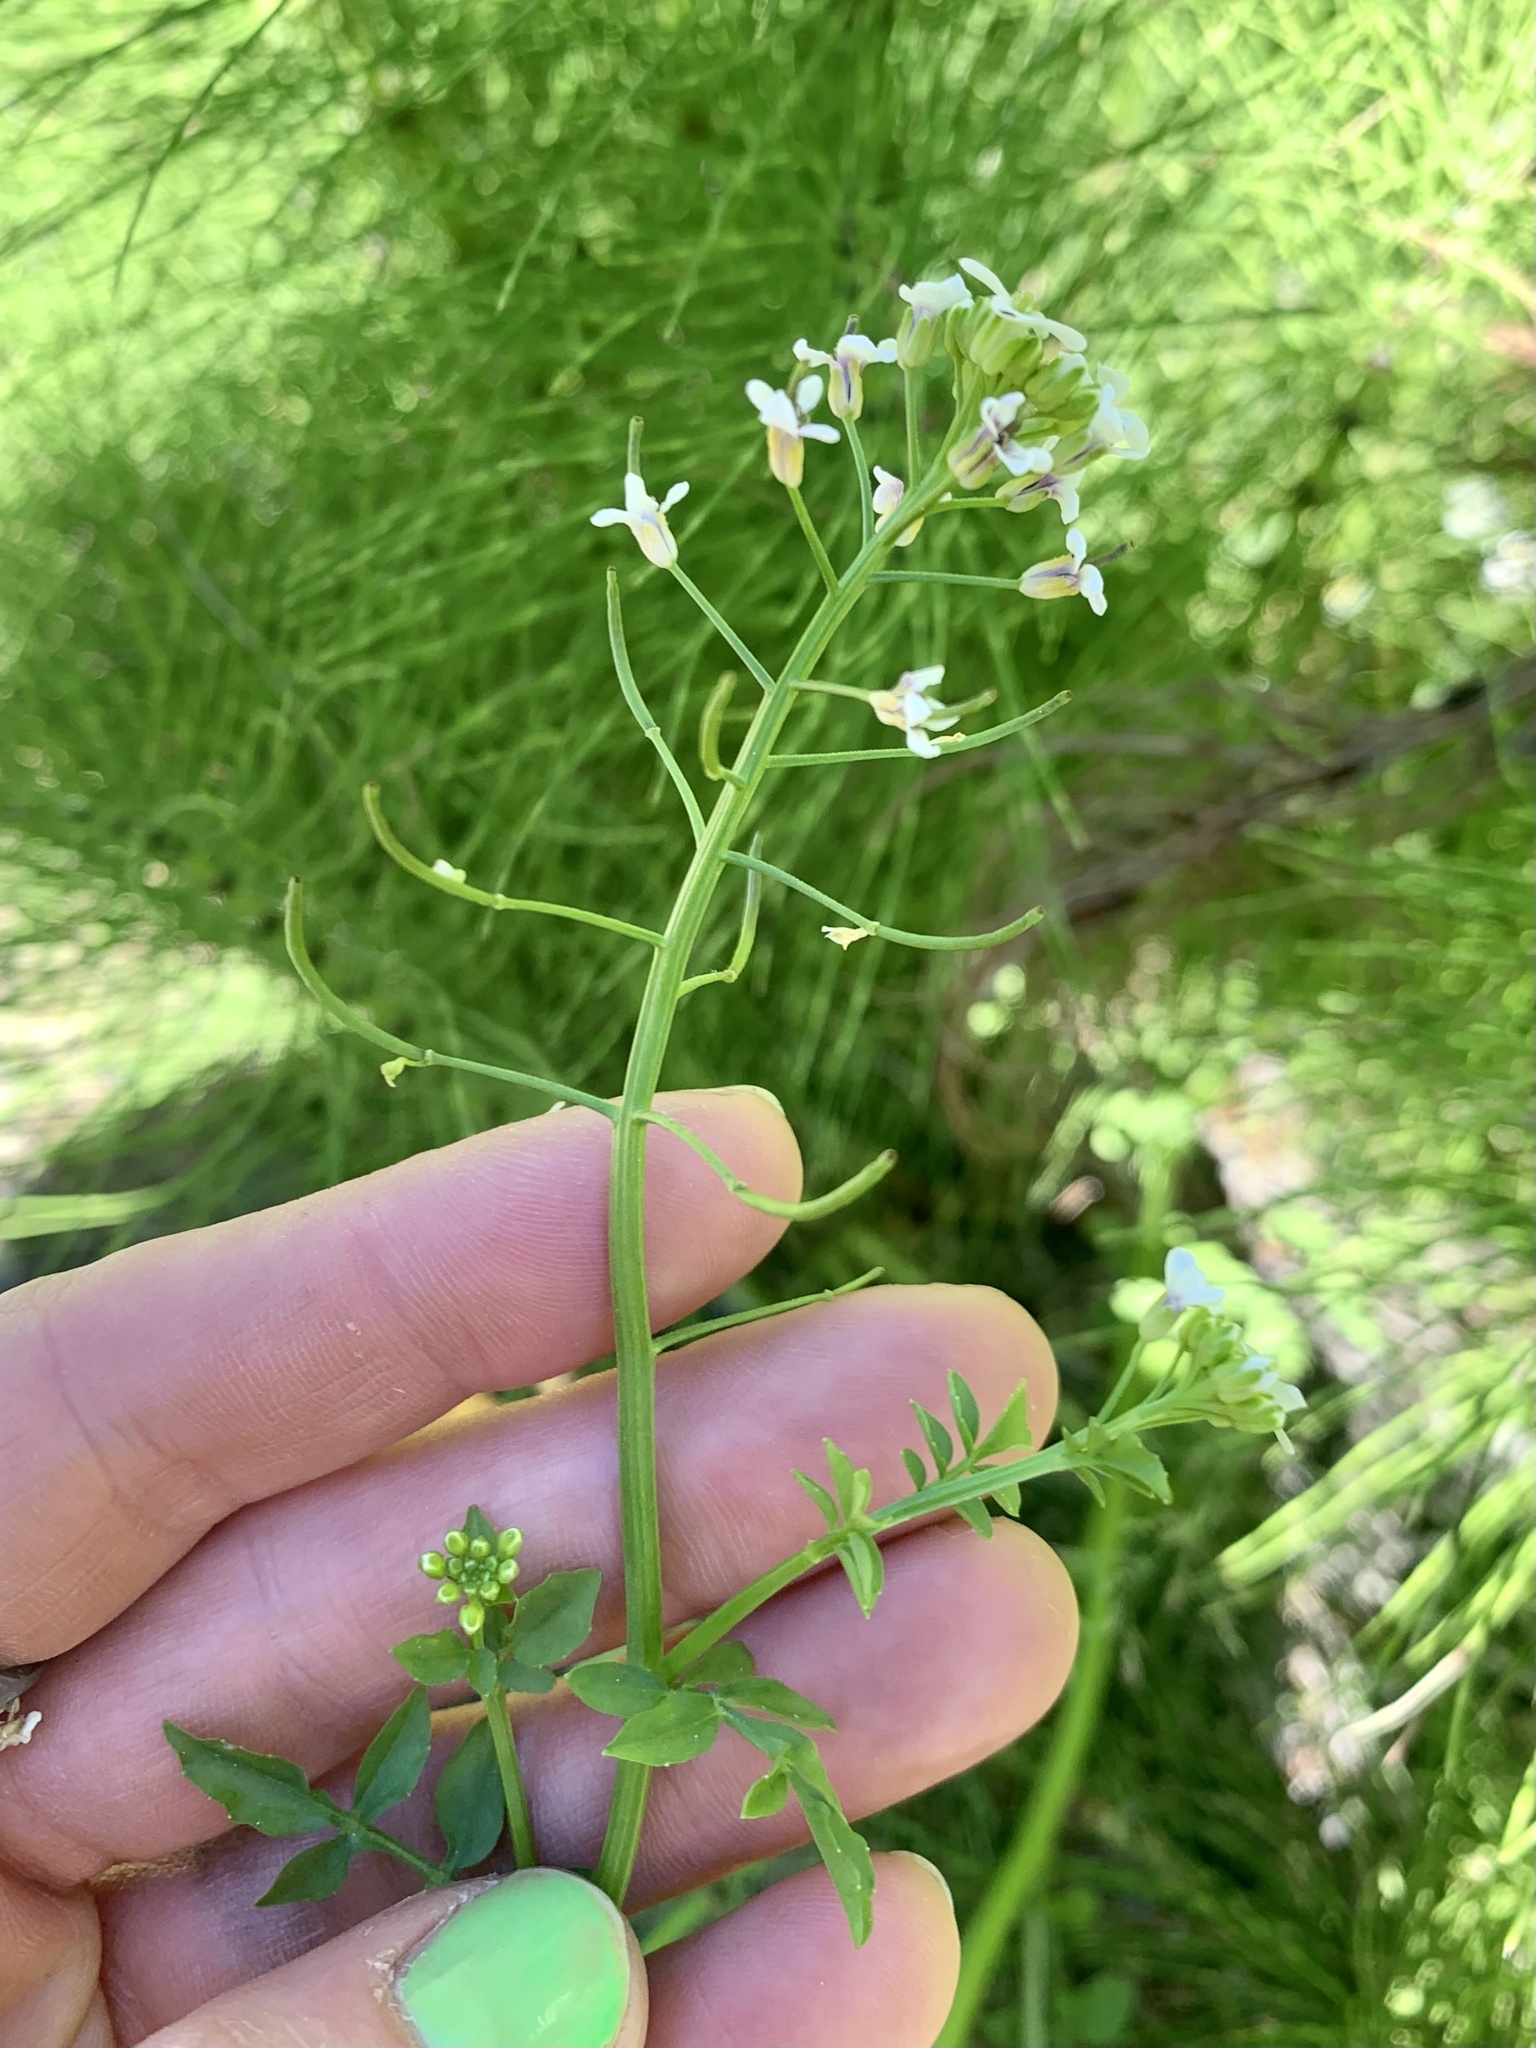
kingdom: Plantae
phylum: Tracheophyta
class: Magnoliopsida
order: Brassicales
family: Brassicaceae
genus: Nasturtium
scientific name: Nasturtium officinale
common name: Watercress
